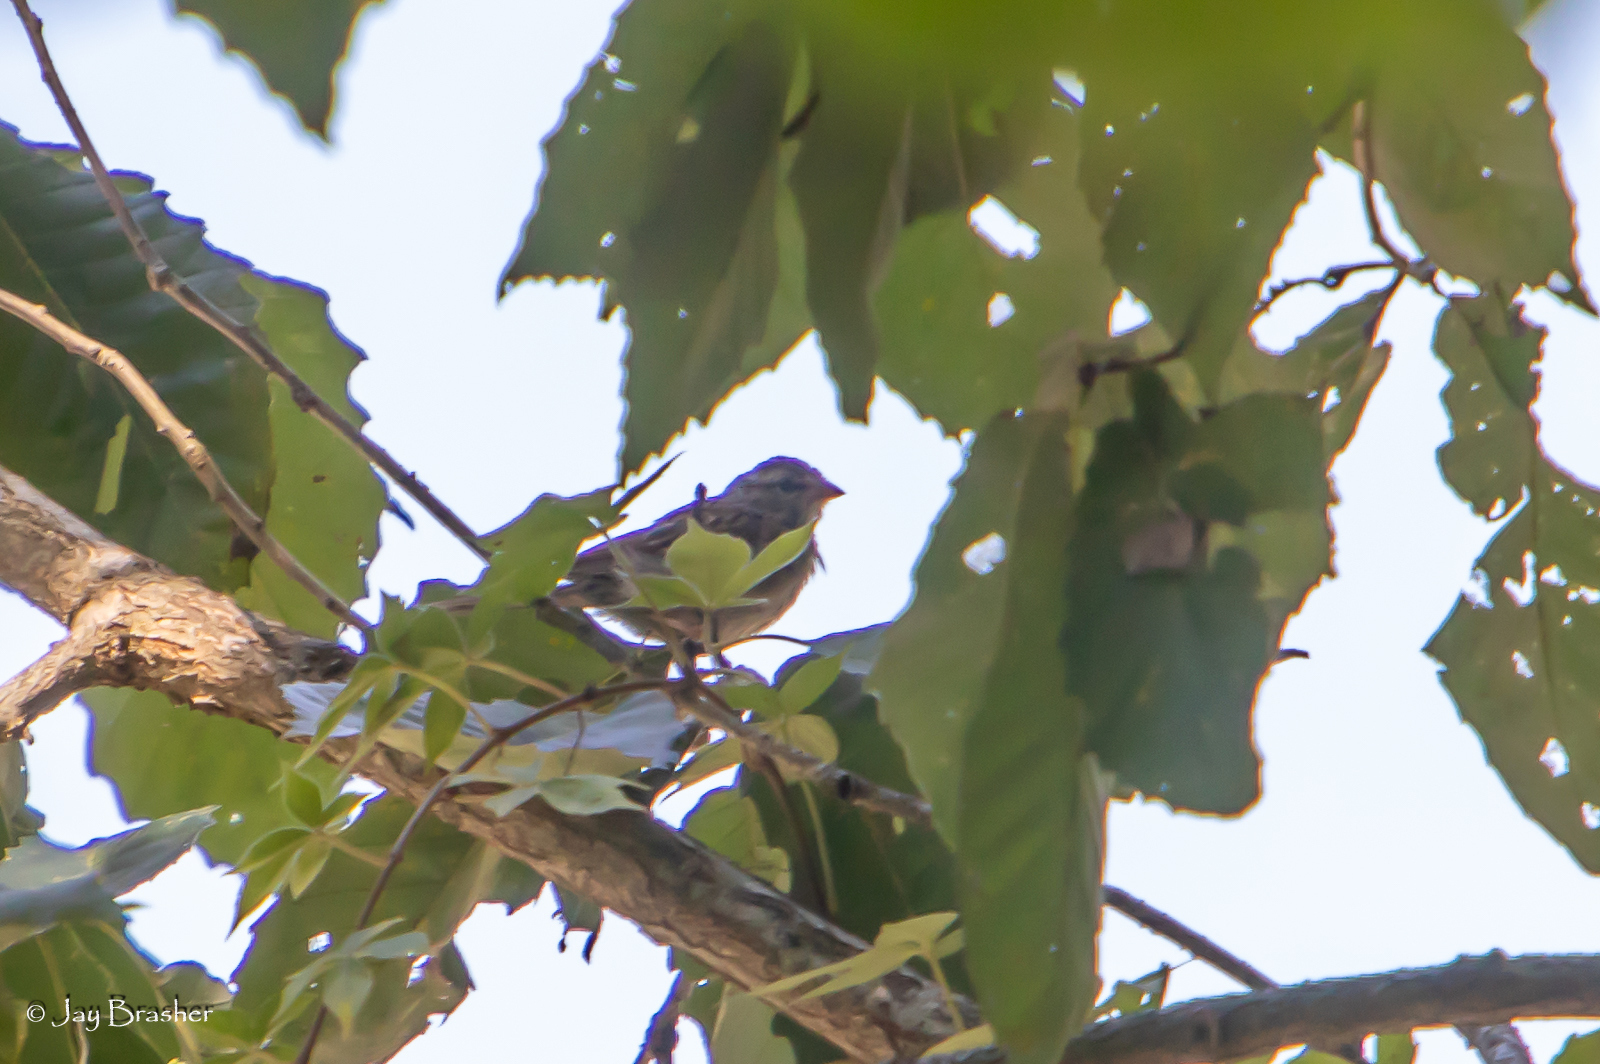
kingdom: Animalia
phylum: Chordata
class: Aves
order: Passeriformes
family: Passerellidae
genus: Spizella
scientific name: Spizella passerina
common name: Chipping sparrow
